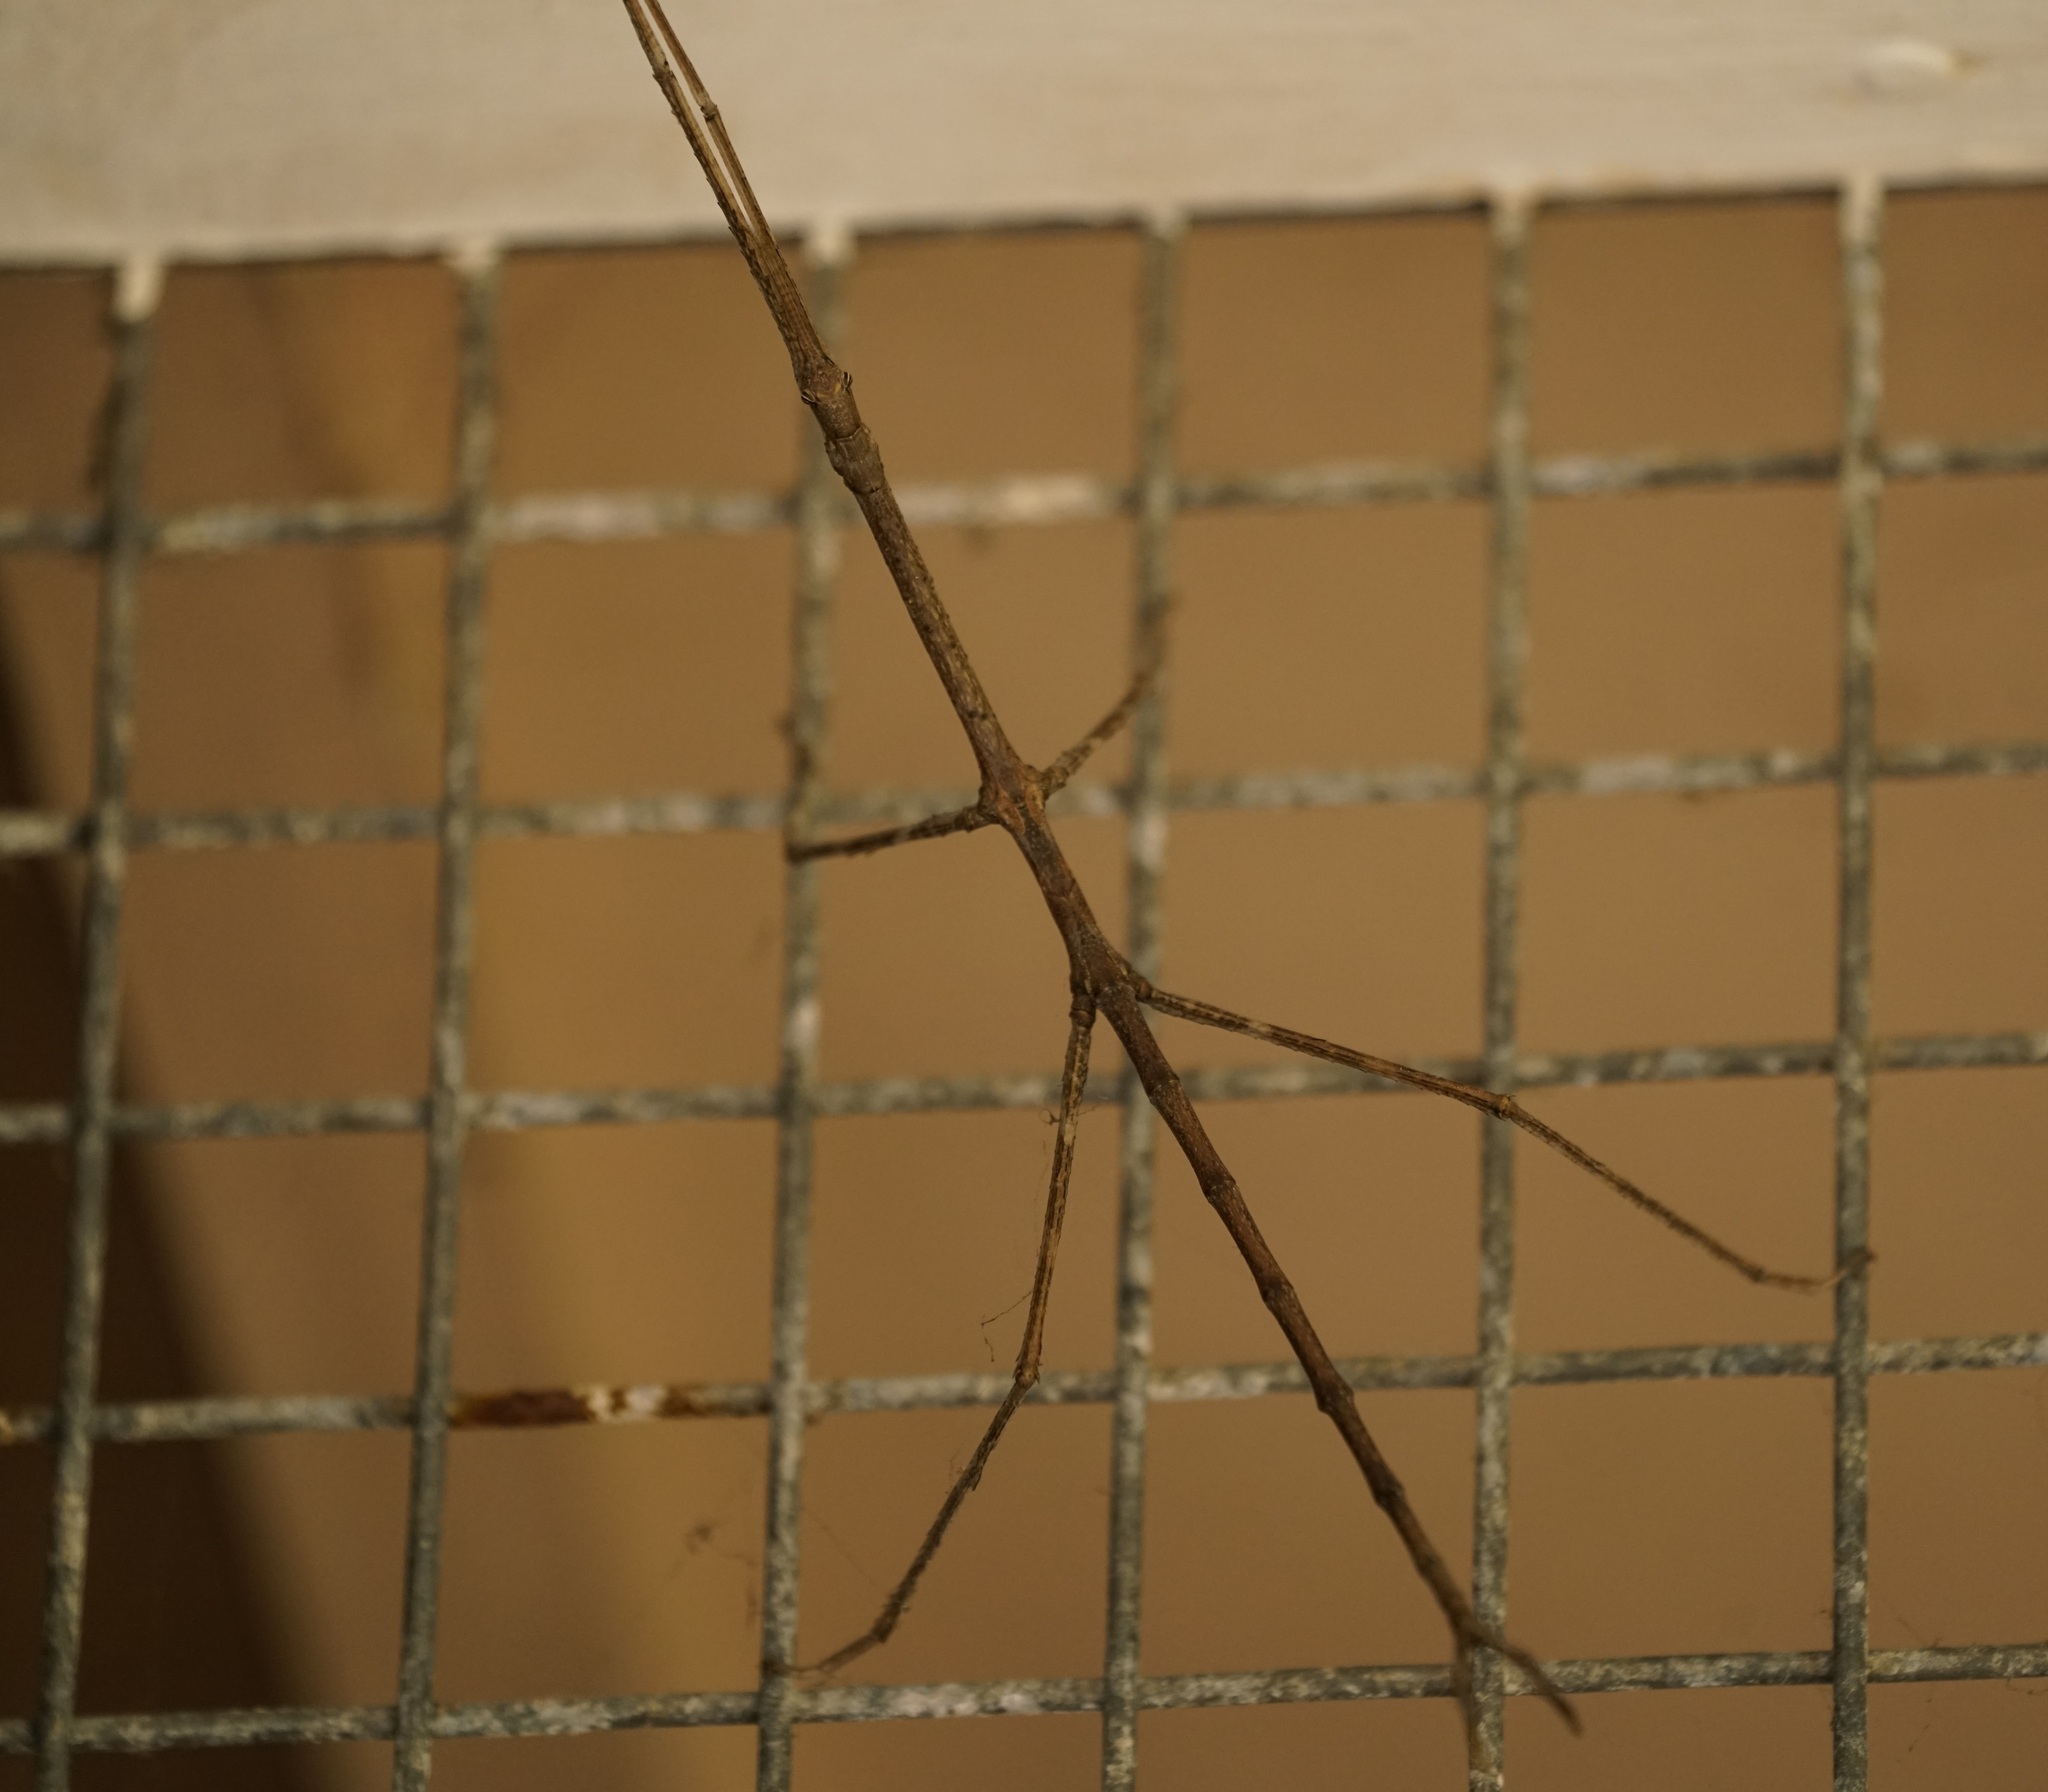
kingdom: Animalia
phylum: Arthropoda
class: Insecta
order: Phasmida
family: Phasmatidae
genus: Ctenomorpha
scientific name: Ctenomorpha marginipennis
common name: Margined-winged stick-insect
